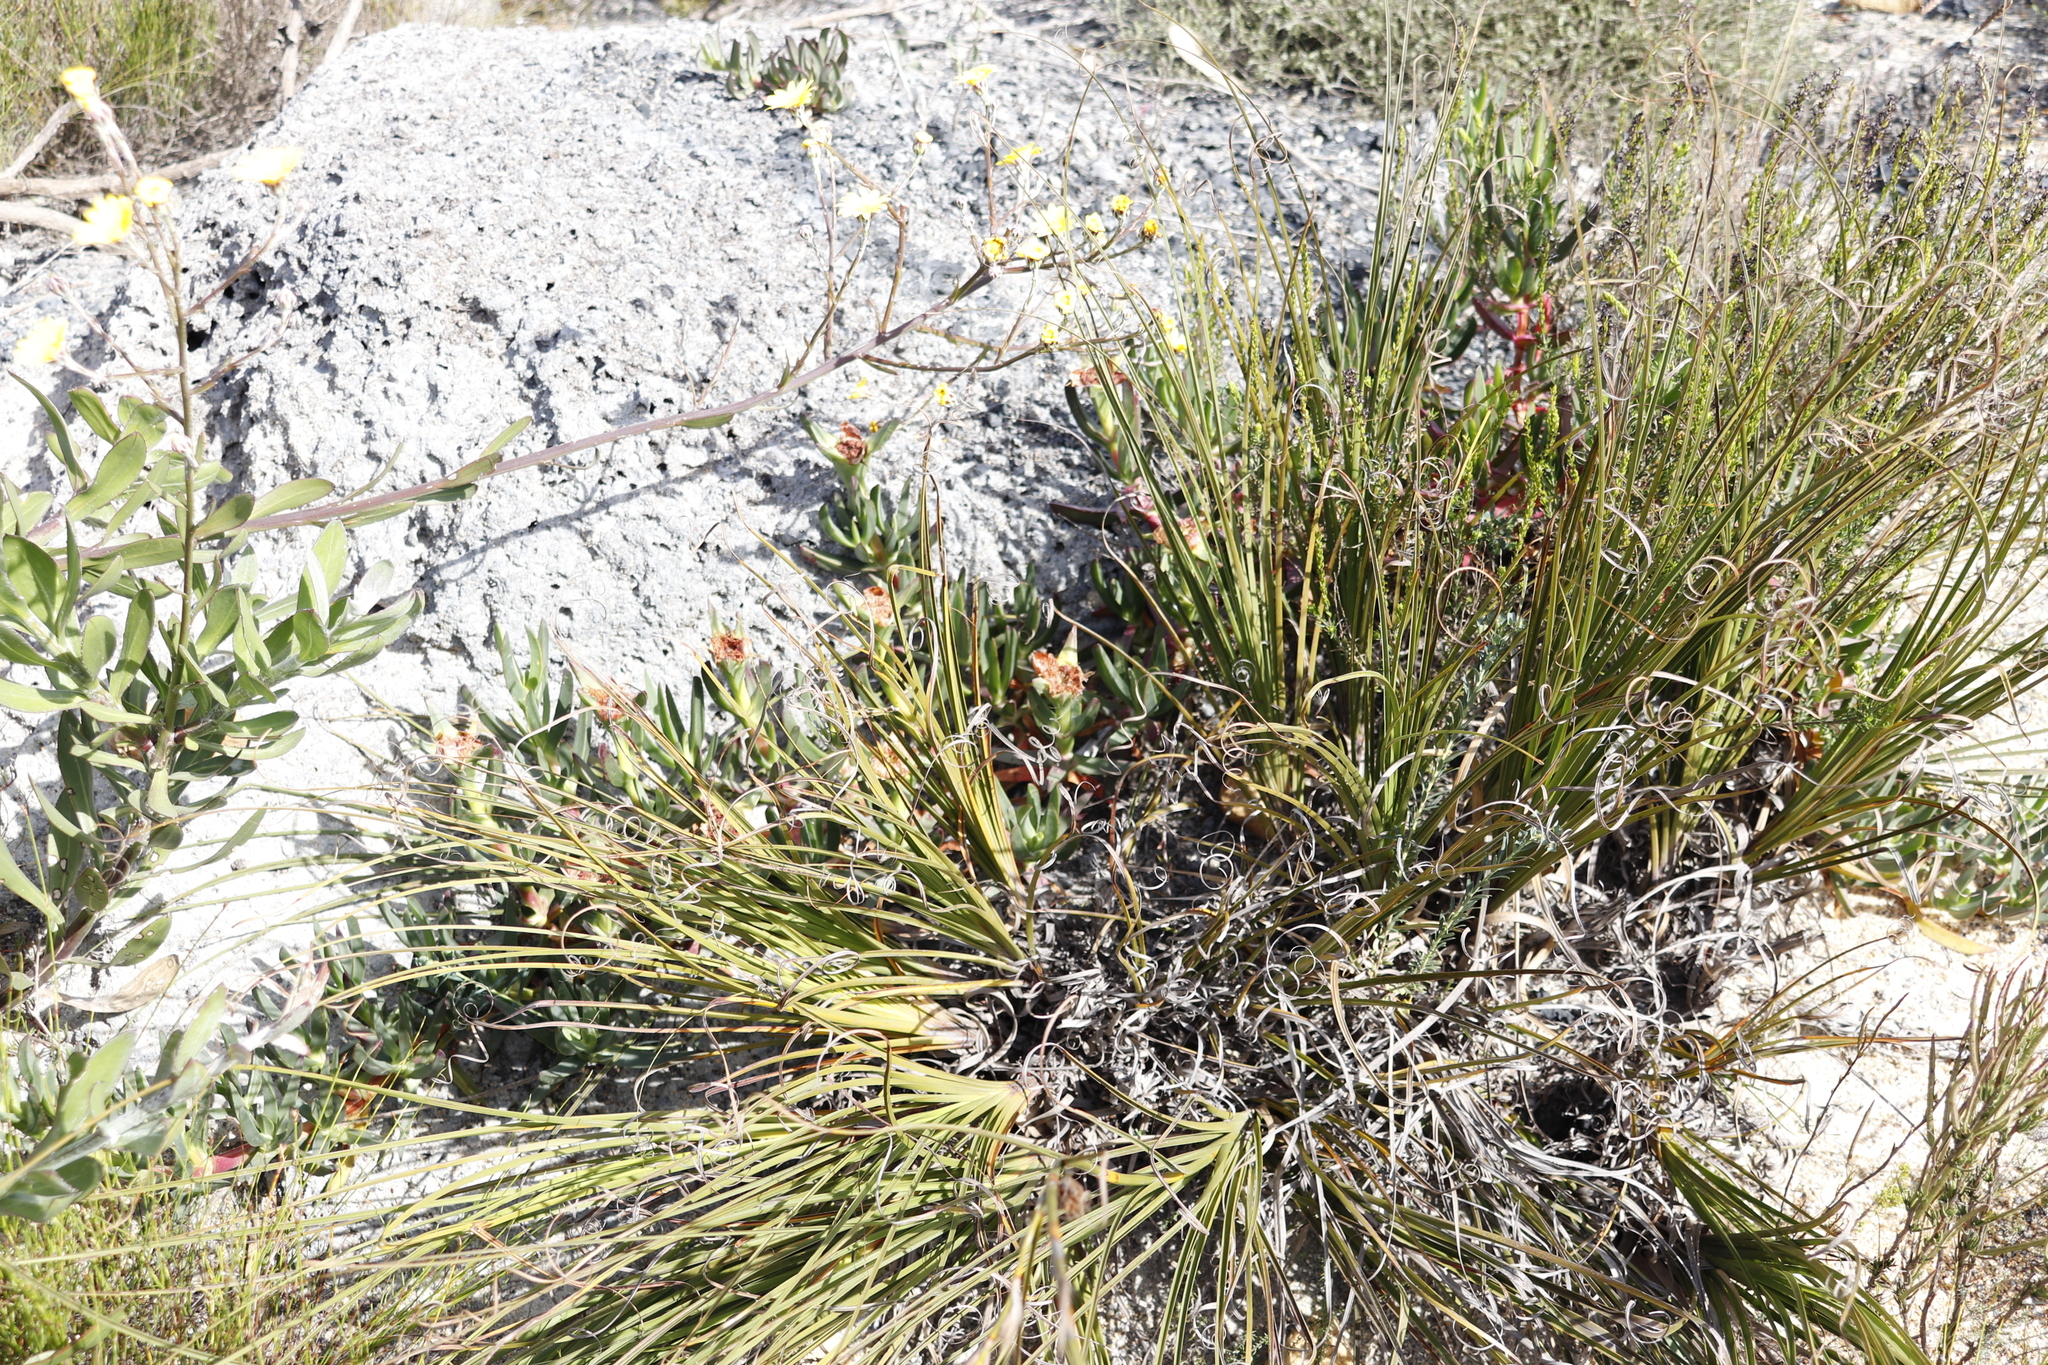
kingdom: Plantae
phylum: Tracheophyta
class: Magnoliopsida
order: Caryophyllales
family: Aizoaceae
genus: Carpobrotus
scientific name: Carpobrotus edulis
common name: Hottentot-fig
